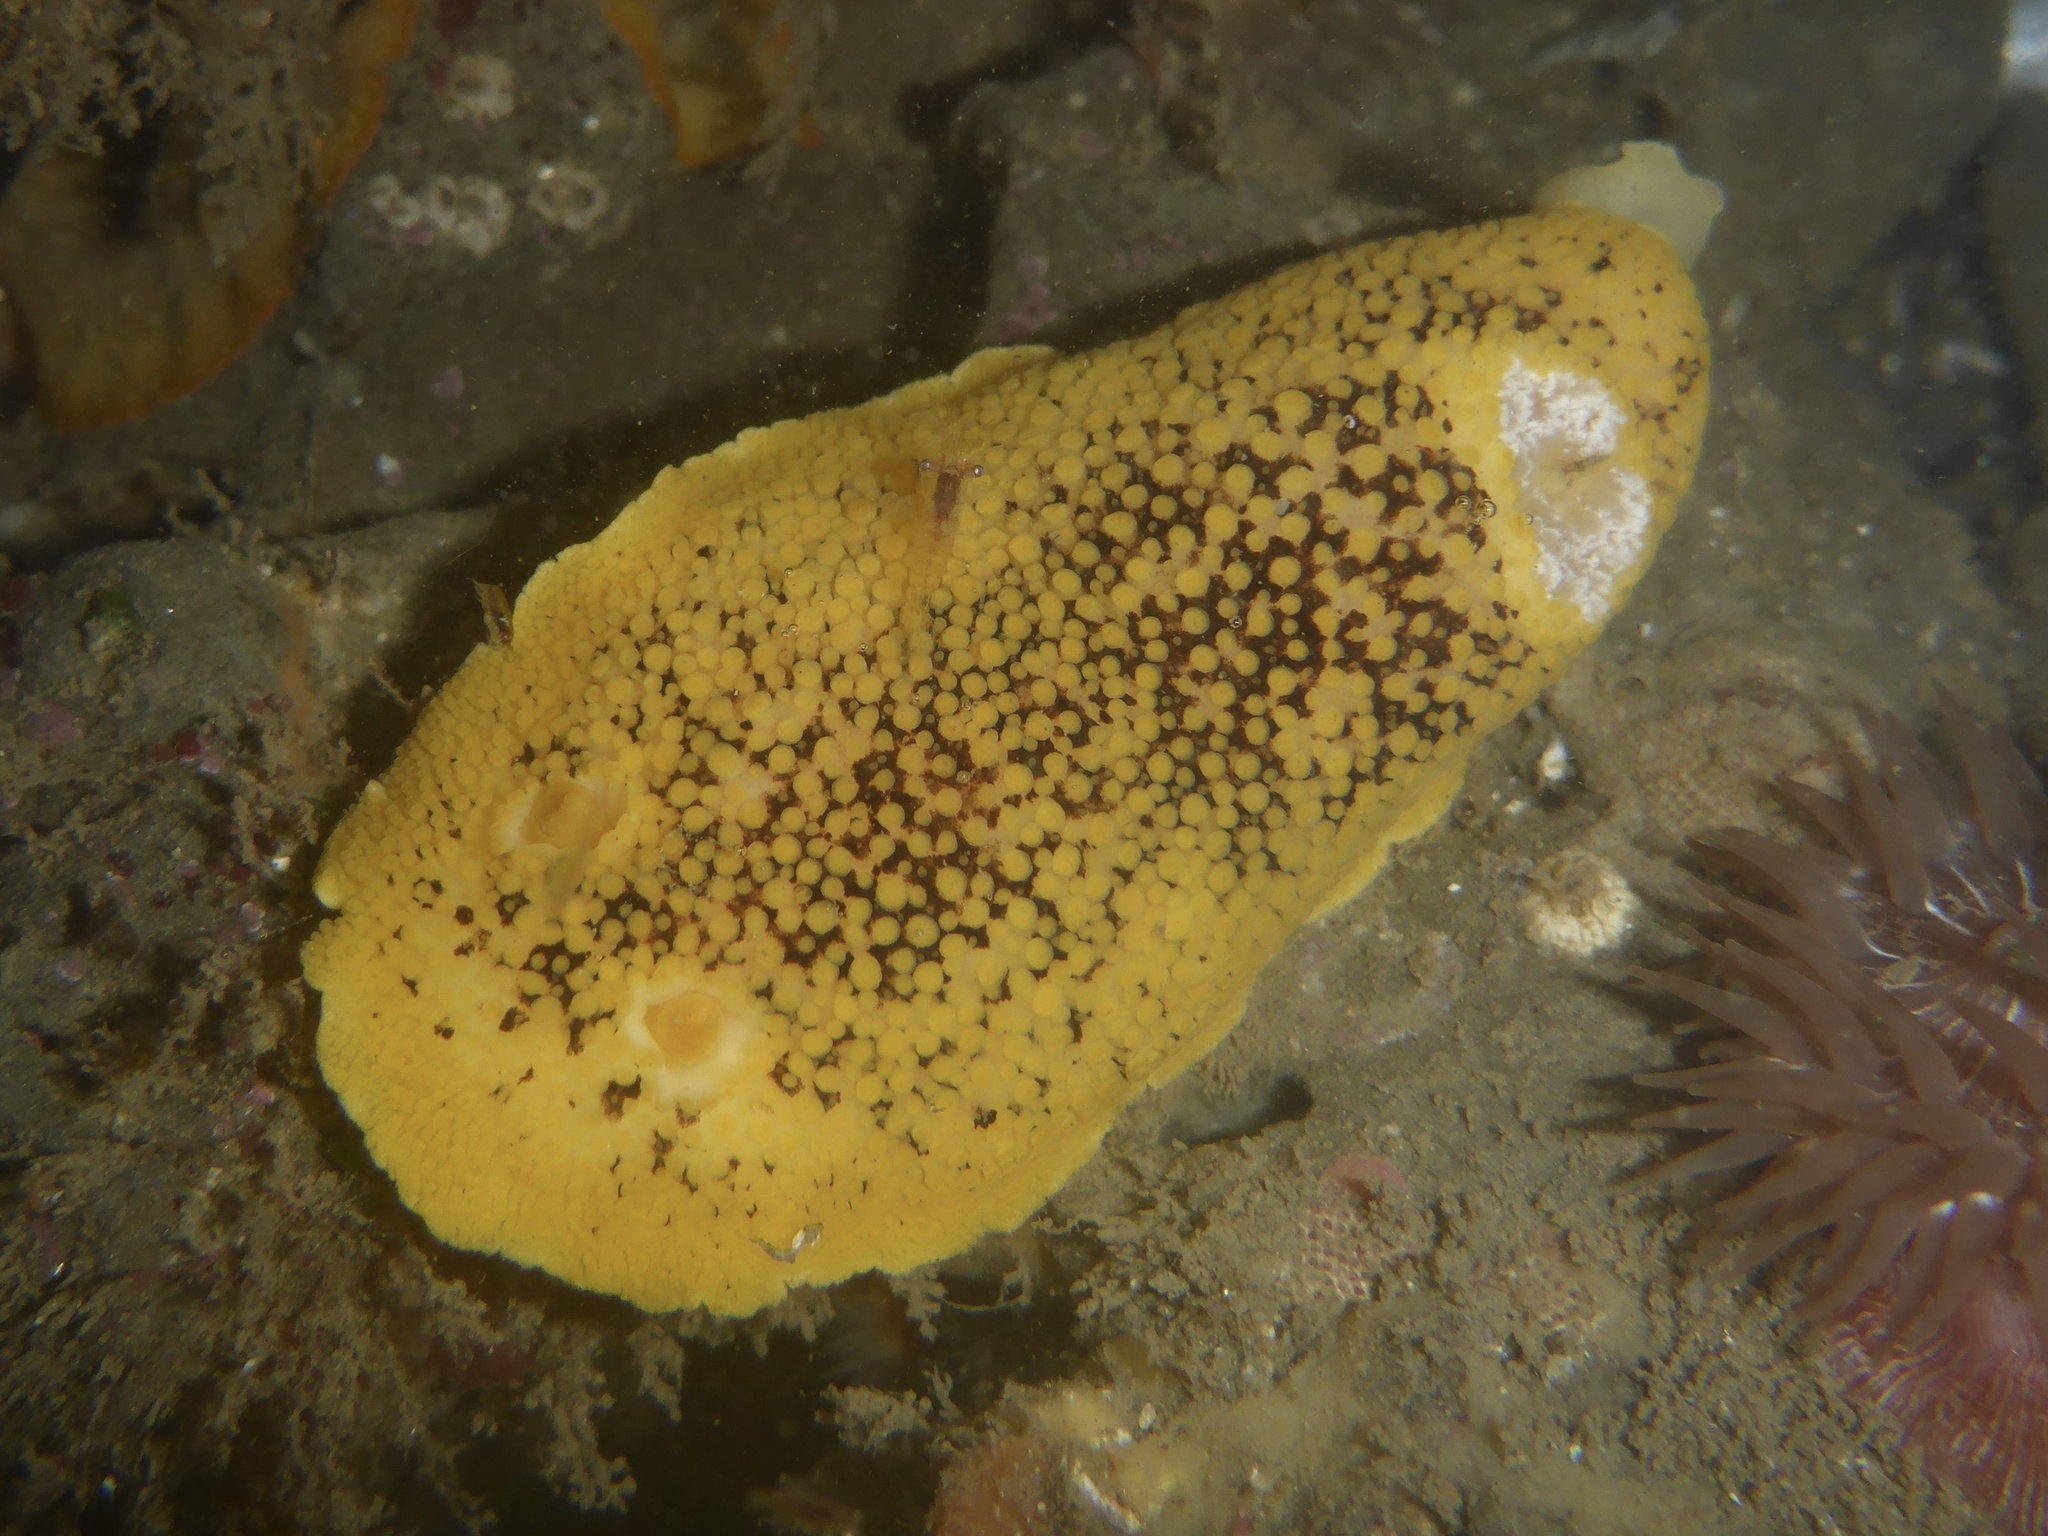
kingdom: Animalia
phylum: Mollusca
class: Gastropoda
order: Nudibranchia
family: Discodorididae
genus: Peltodoris
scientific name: Peltodoris nobilis
